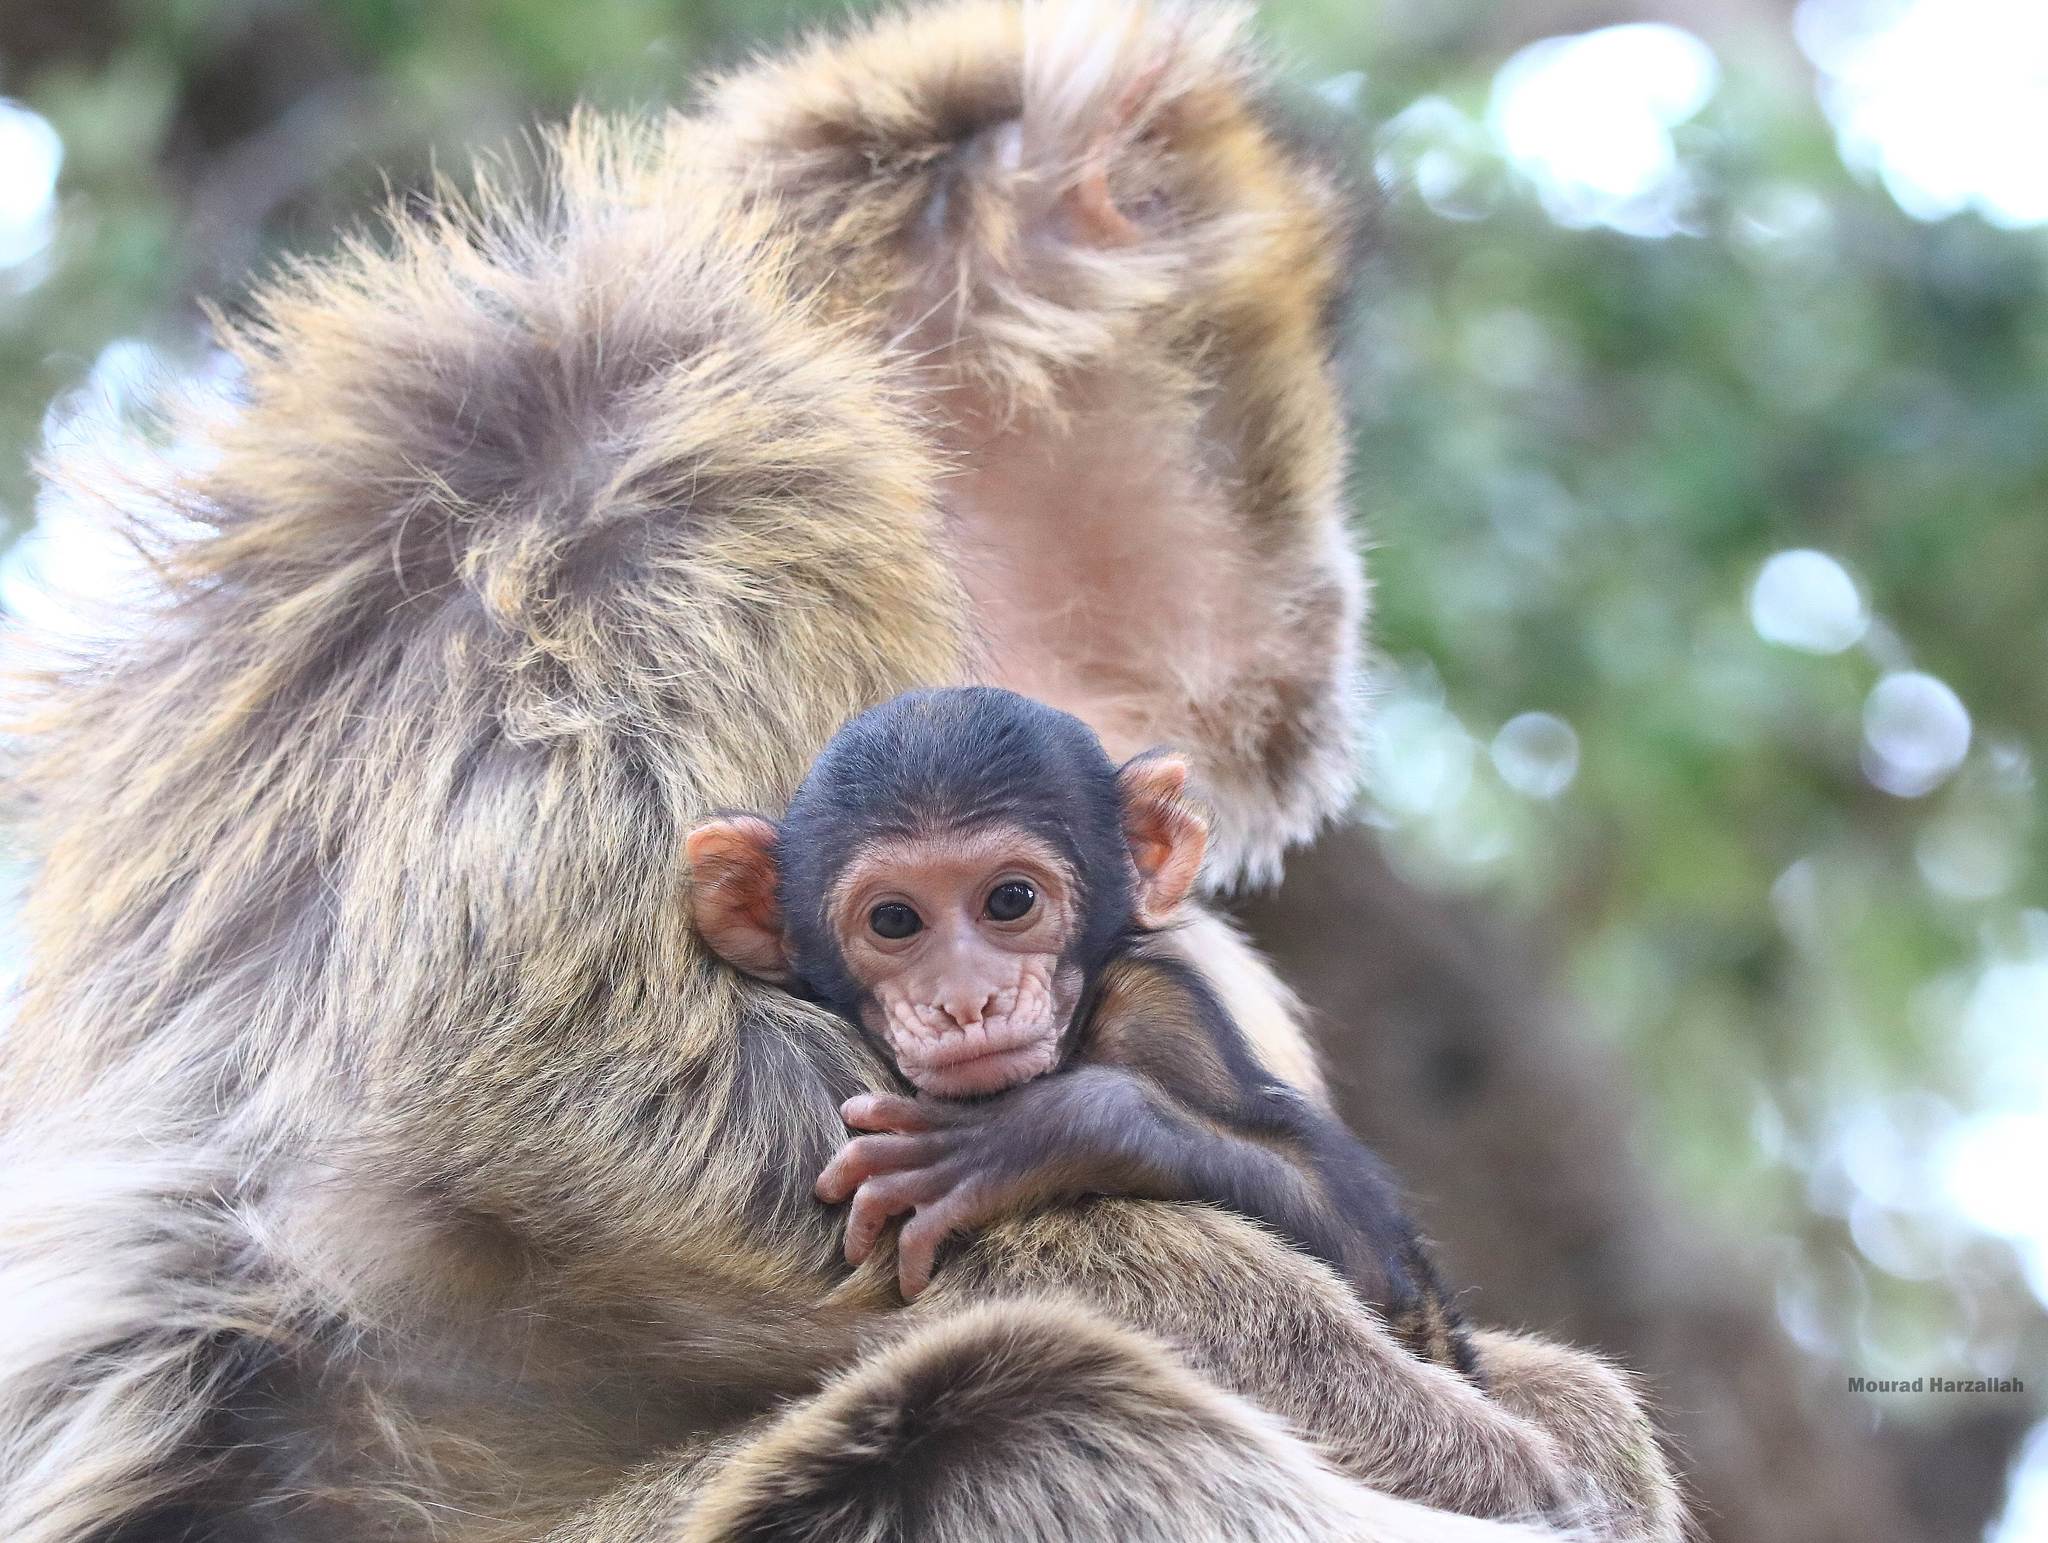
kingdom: Animalia
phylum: Chordata
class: Mammalia
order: Primates
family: Cercopithecidae
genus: Macaca
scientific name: Macaca sylvanus
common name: Barbary macaque
